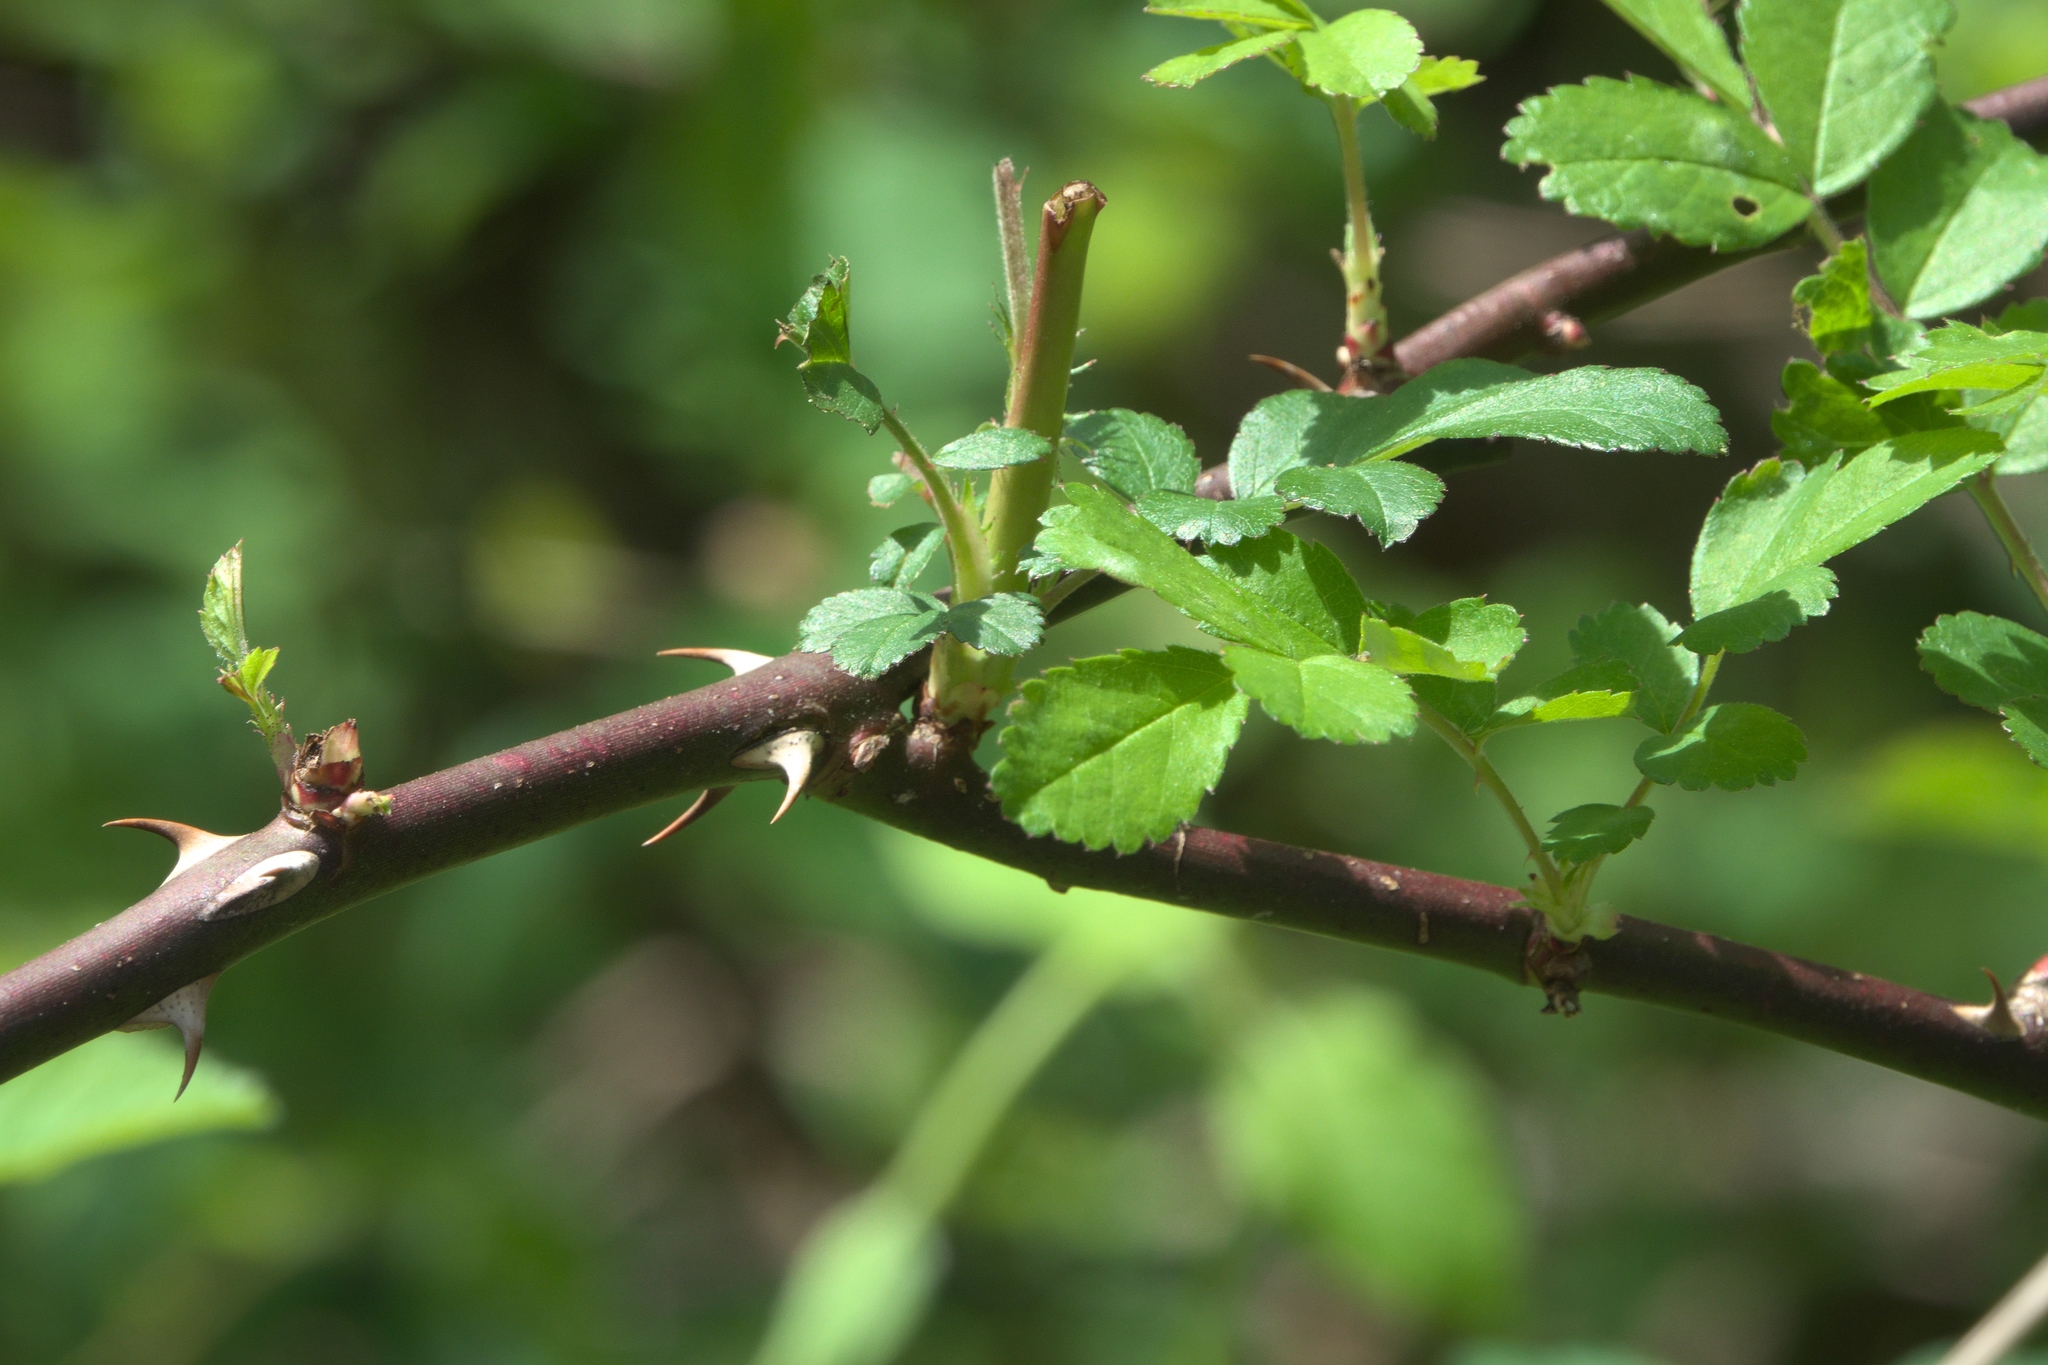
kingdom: Plantae
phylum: Tracheophyta
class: Magnoliopsida
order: Rosales
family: Rosaceae
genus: Rosa
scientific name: Rosa multiflora
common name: Multiflora rose
